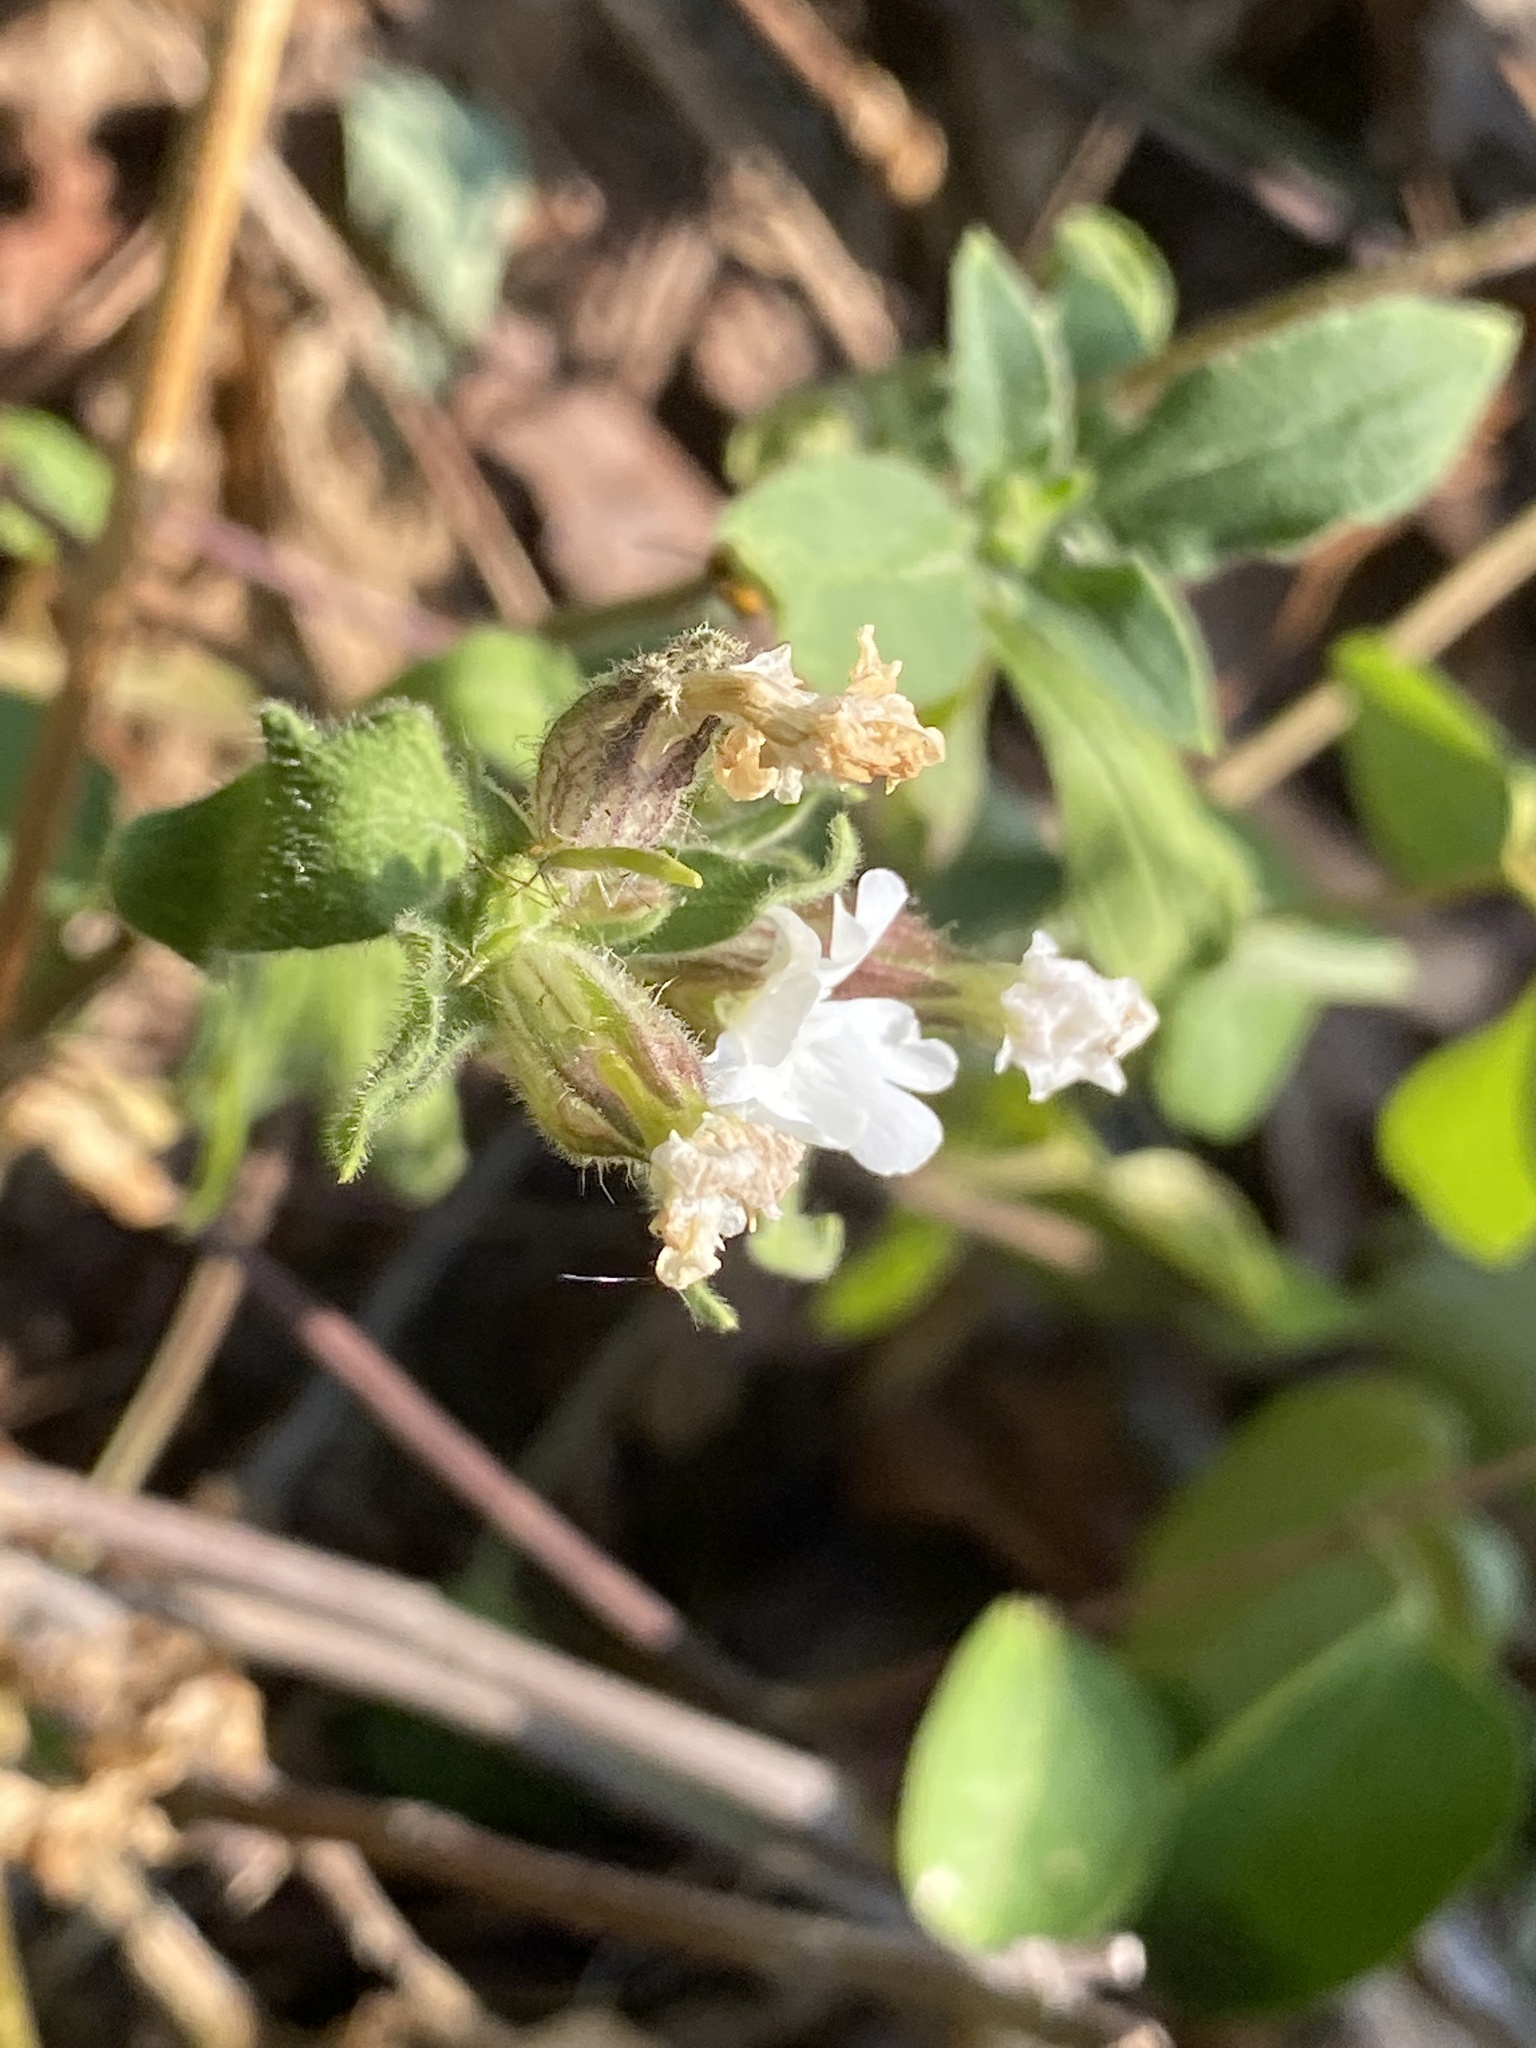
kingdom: Plantae
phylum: Tracheophyta
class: Magnoliopsida
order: Caryophyllales
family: Caryophyllaceae
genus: Silene
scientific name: Silene latifolia
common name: White campion
